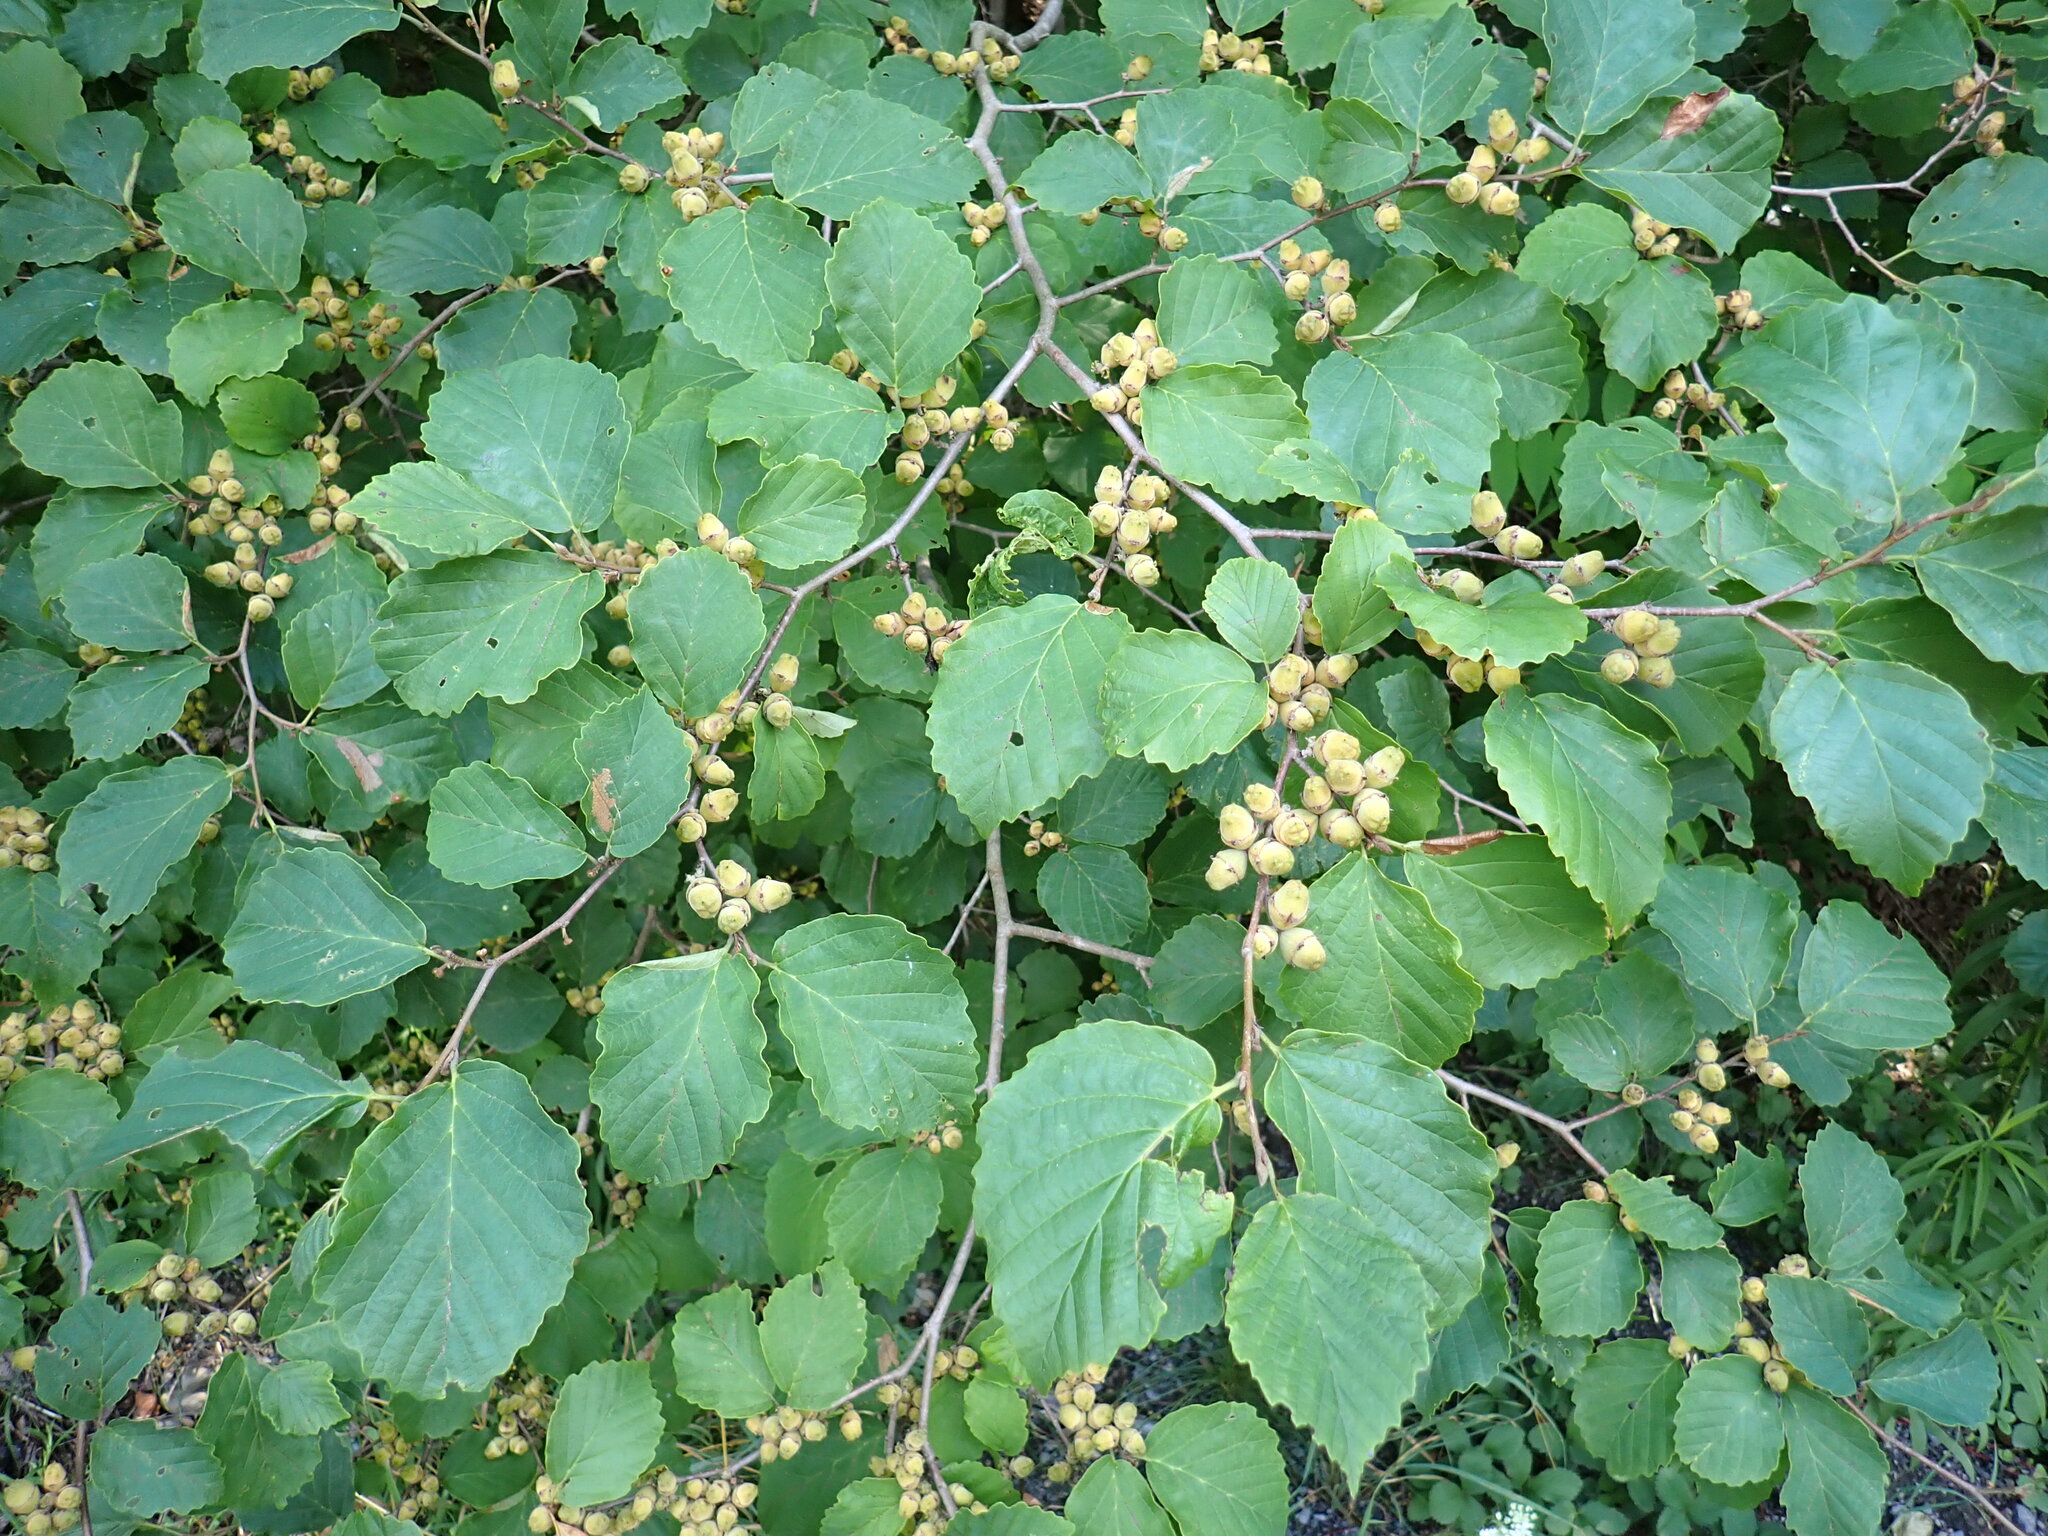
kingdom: Plantae
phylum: Tracheophyta
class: Magnoliopsida
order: Saxifragales
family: Hamamelidaceae
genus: Hamamelis
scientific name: Hamamelis virginiana
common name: Witch-hazel
